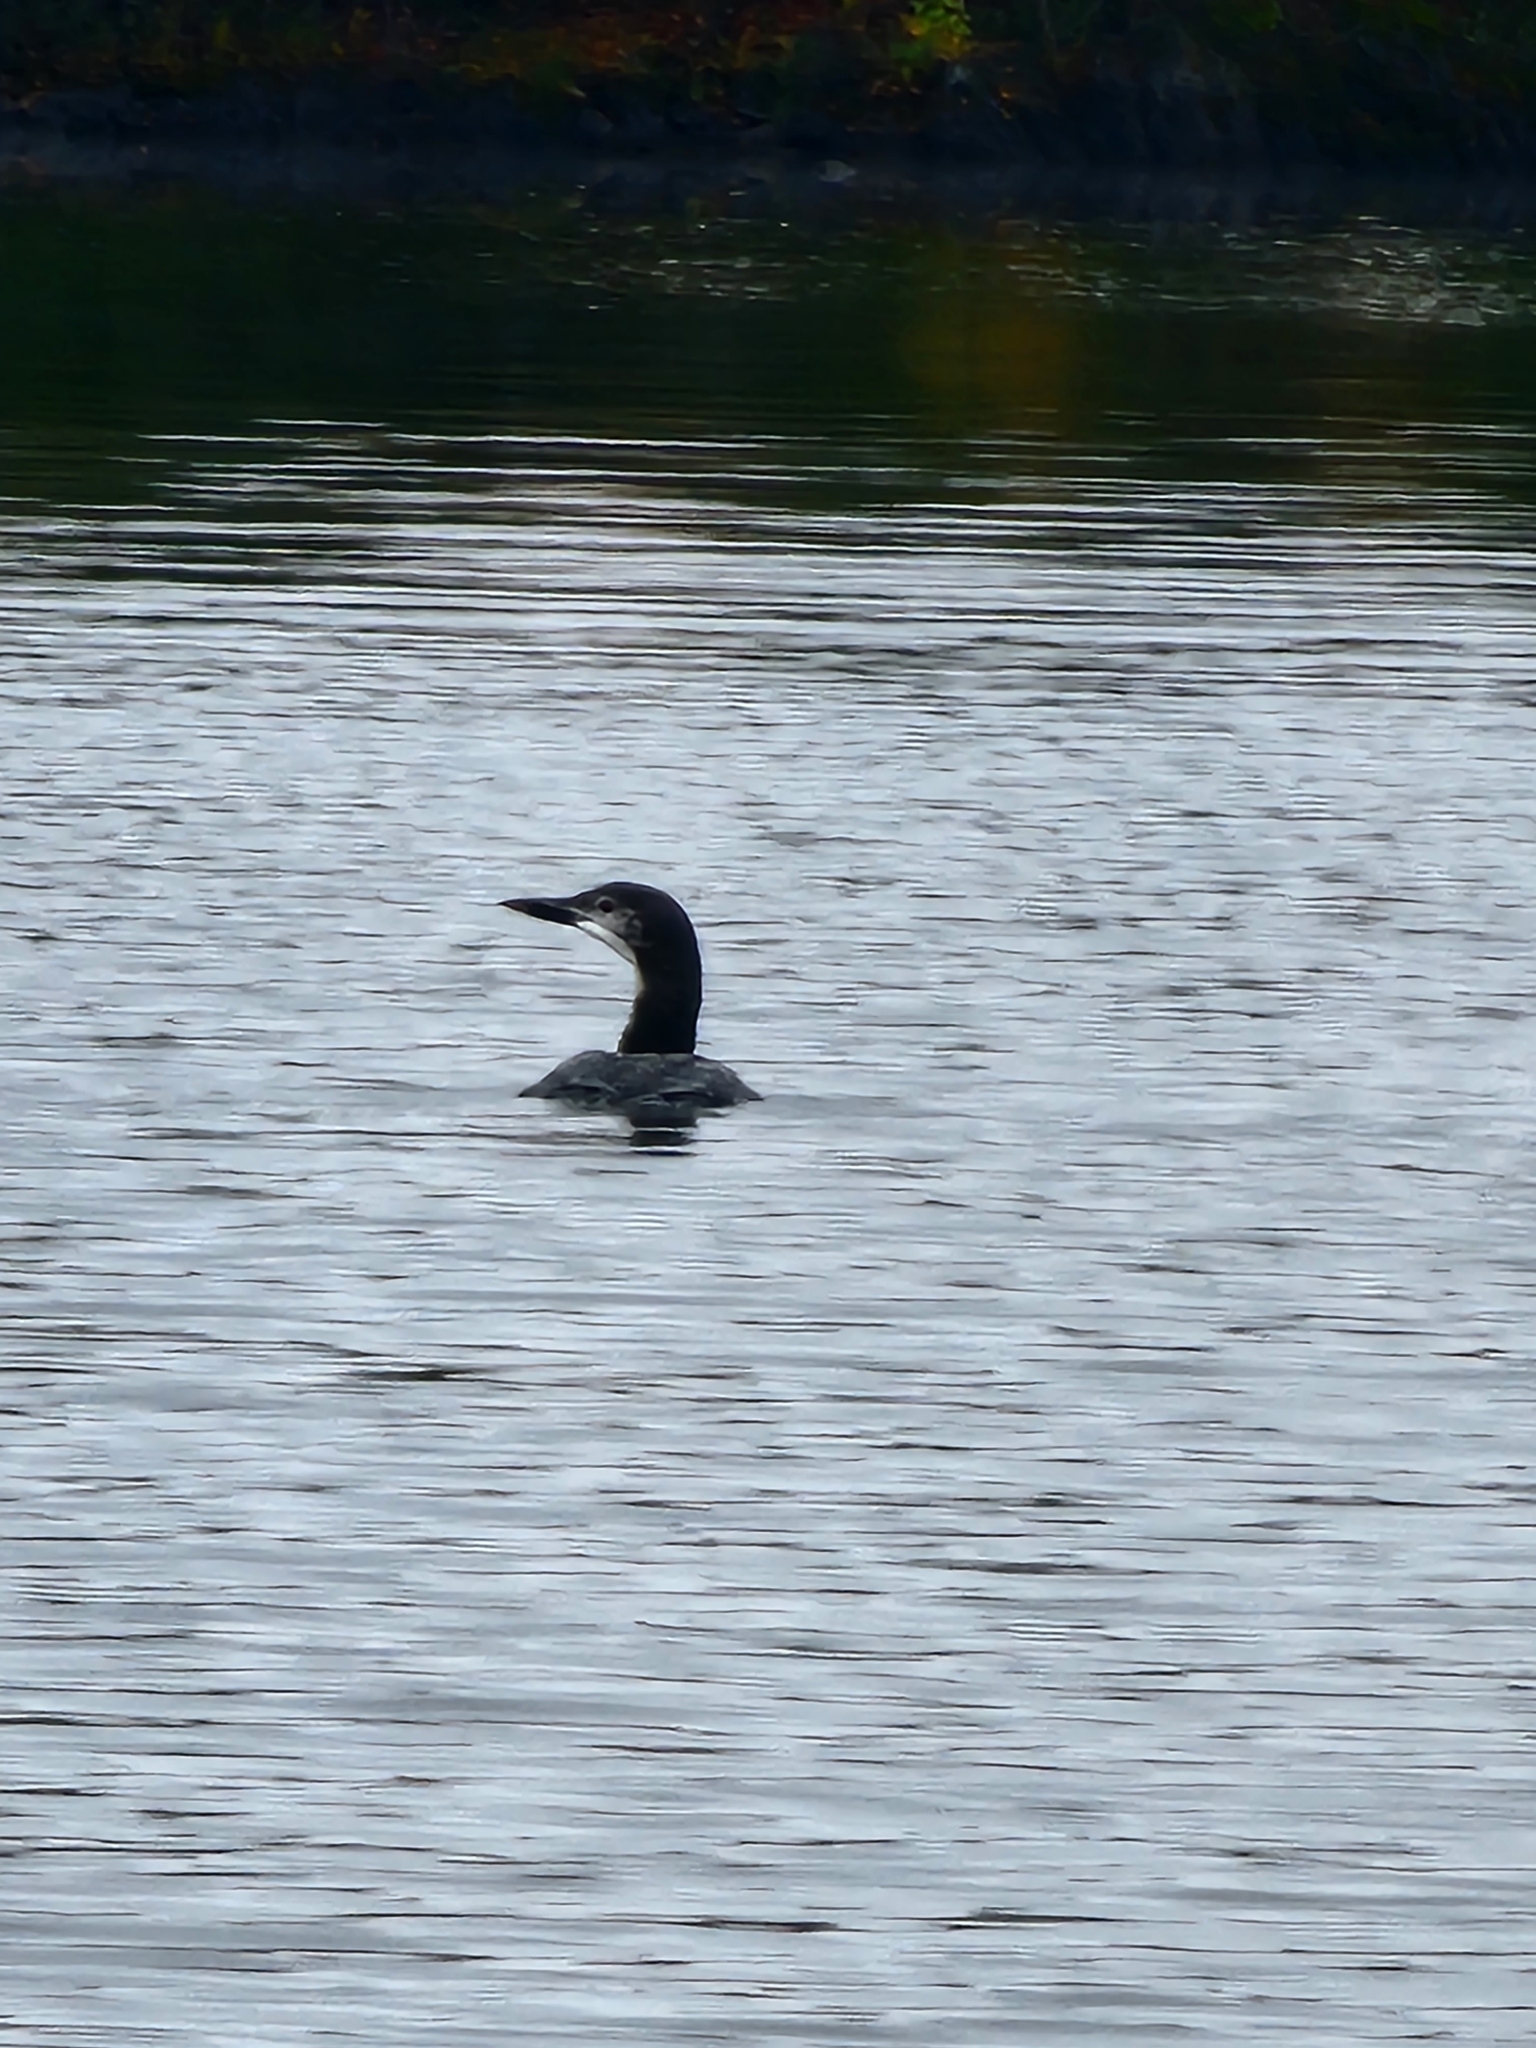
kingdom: Animalia
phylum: Chordata
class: Aves
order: Gaviiformes
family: Gaviidae
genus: Gavia
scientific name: Gavia immer
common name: Common loon
